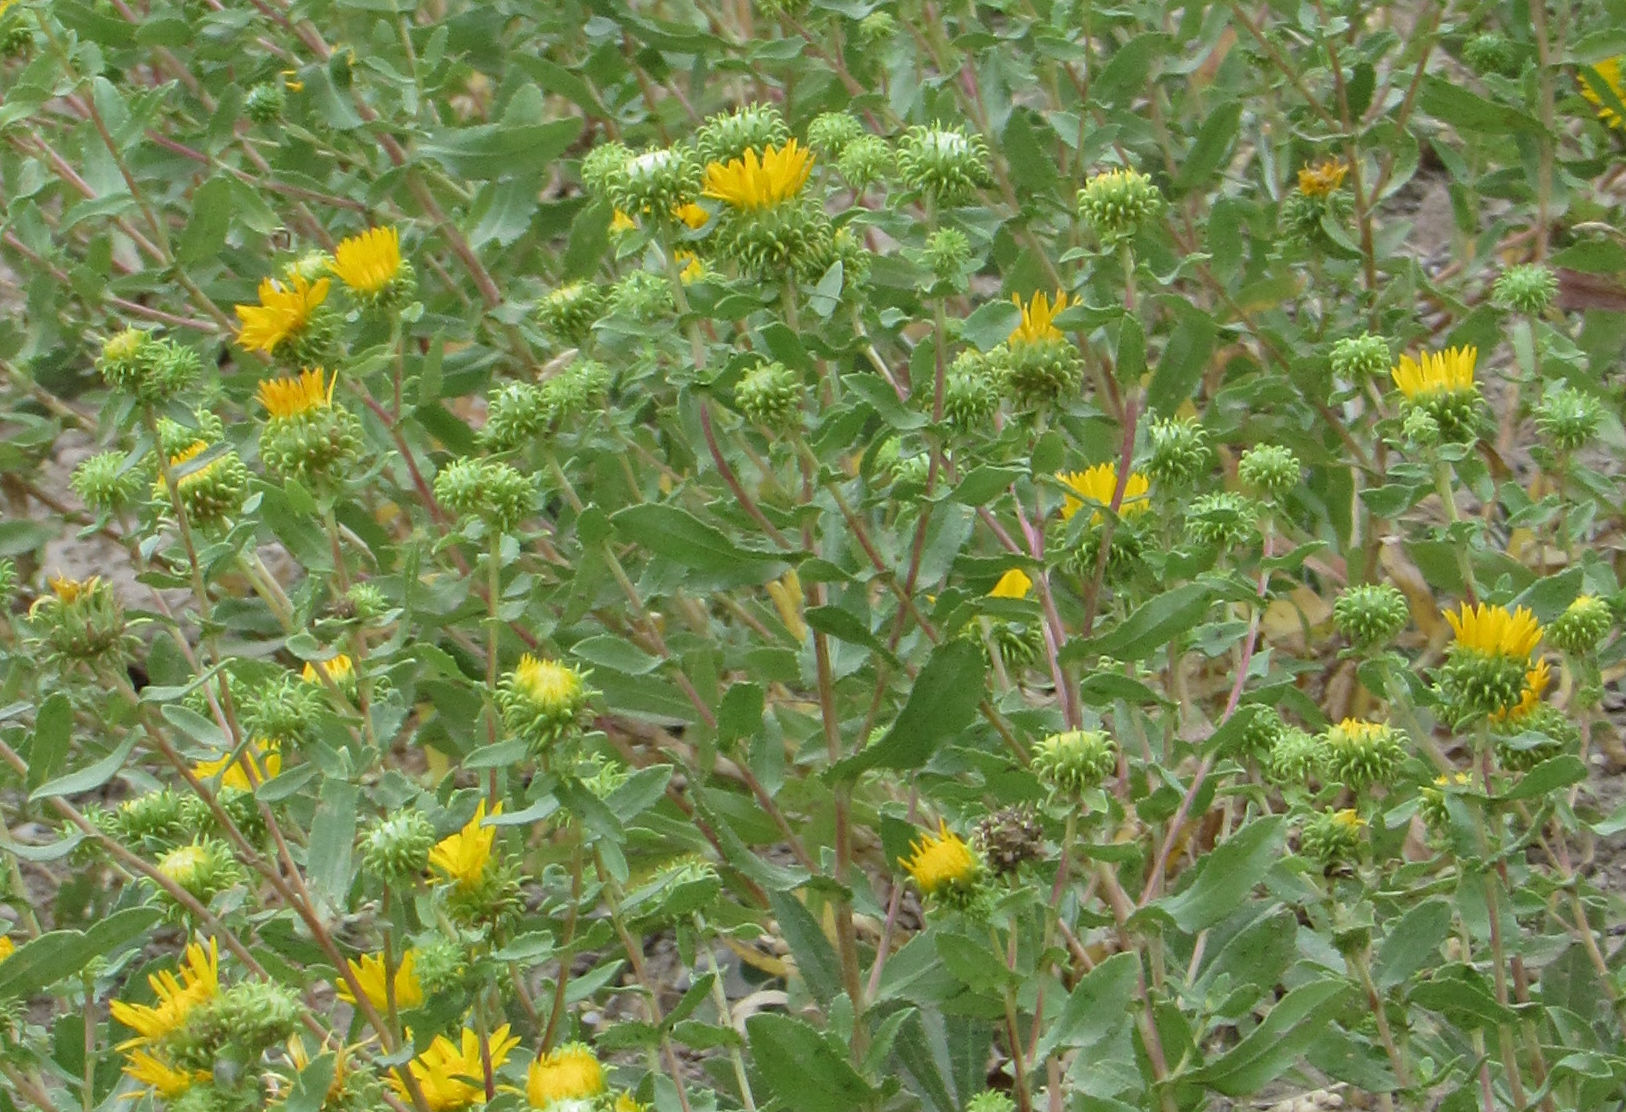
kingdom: Plantae
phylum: Tracheophyta
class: Magnoliopsida
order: Asterales
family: Asteraceae
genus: Grindelia
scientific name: Grindelia squarrosa
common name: Curly-cup gumweed
